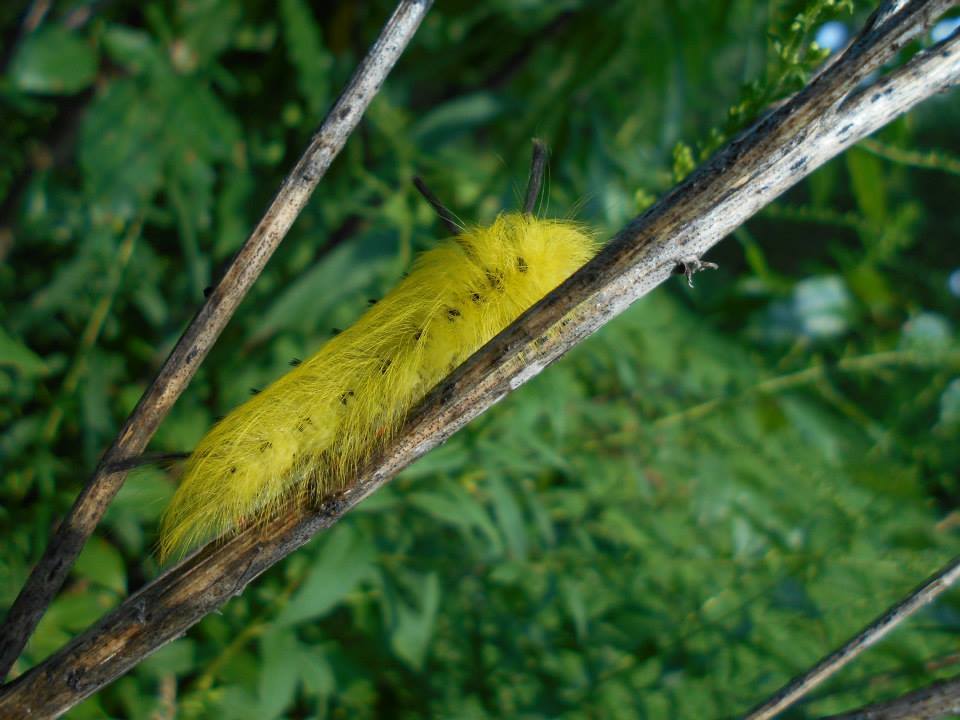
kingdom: Animalia
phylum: Arthropoda
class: Insecta
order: Lepidoptera
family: Apatelodidae
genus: Hygrochroa
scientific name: Hygrochroa Apatelodes torrefacta
